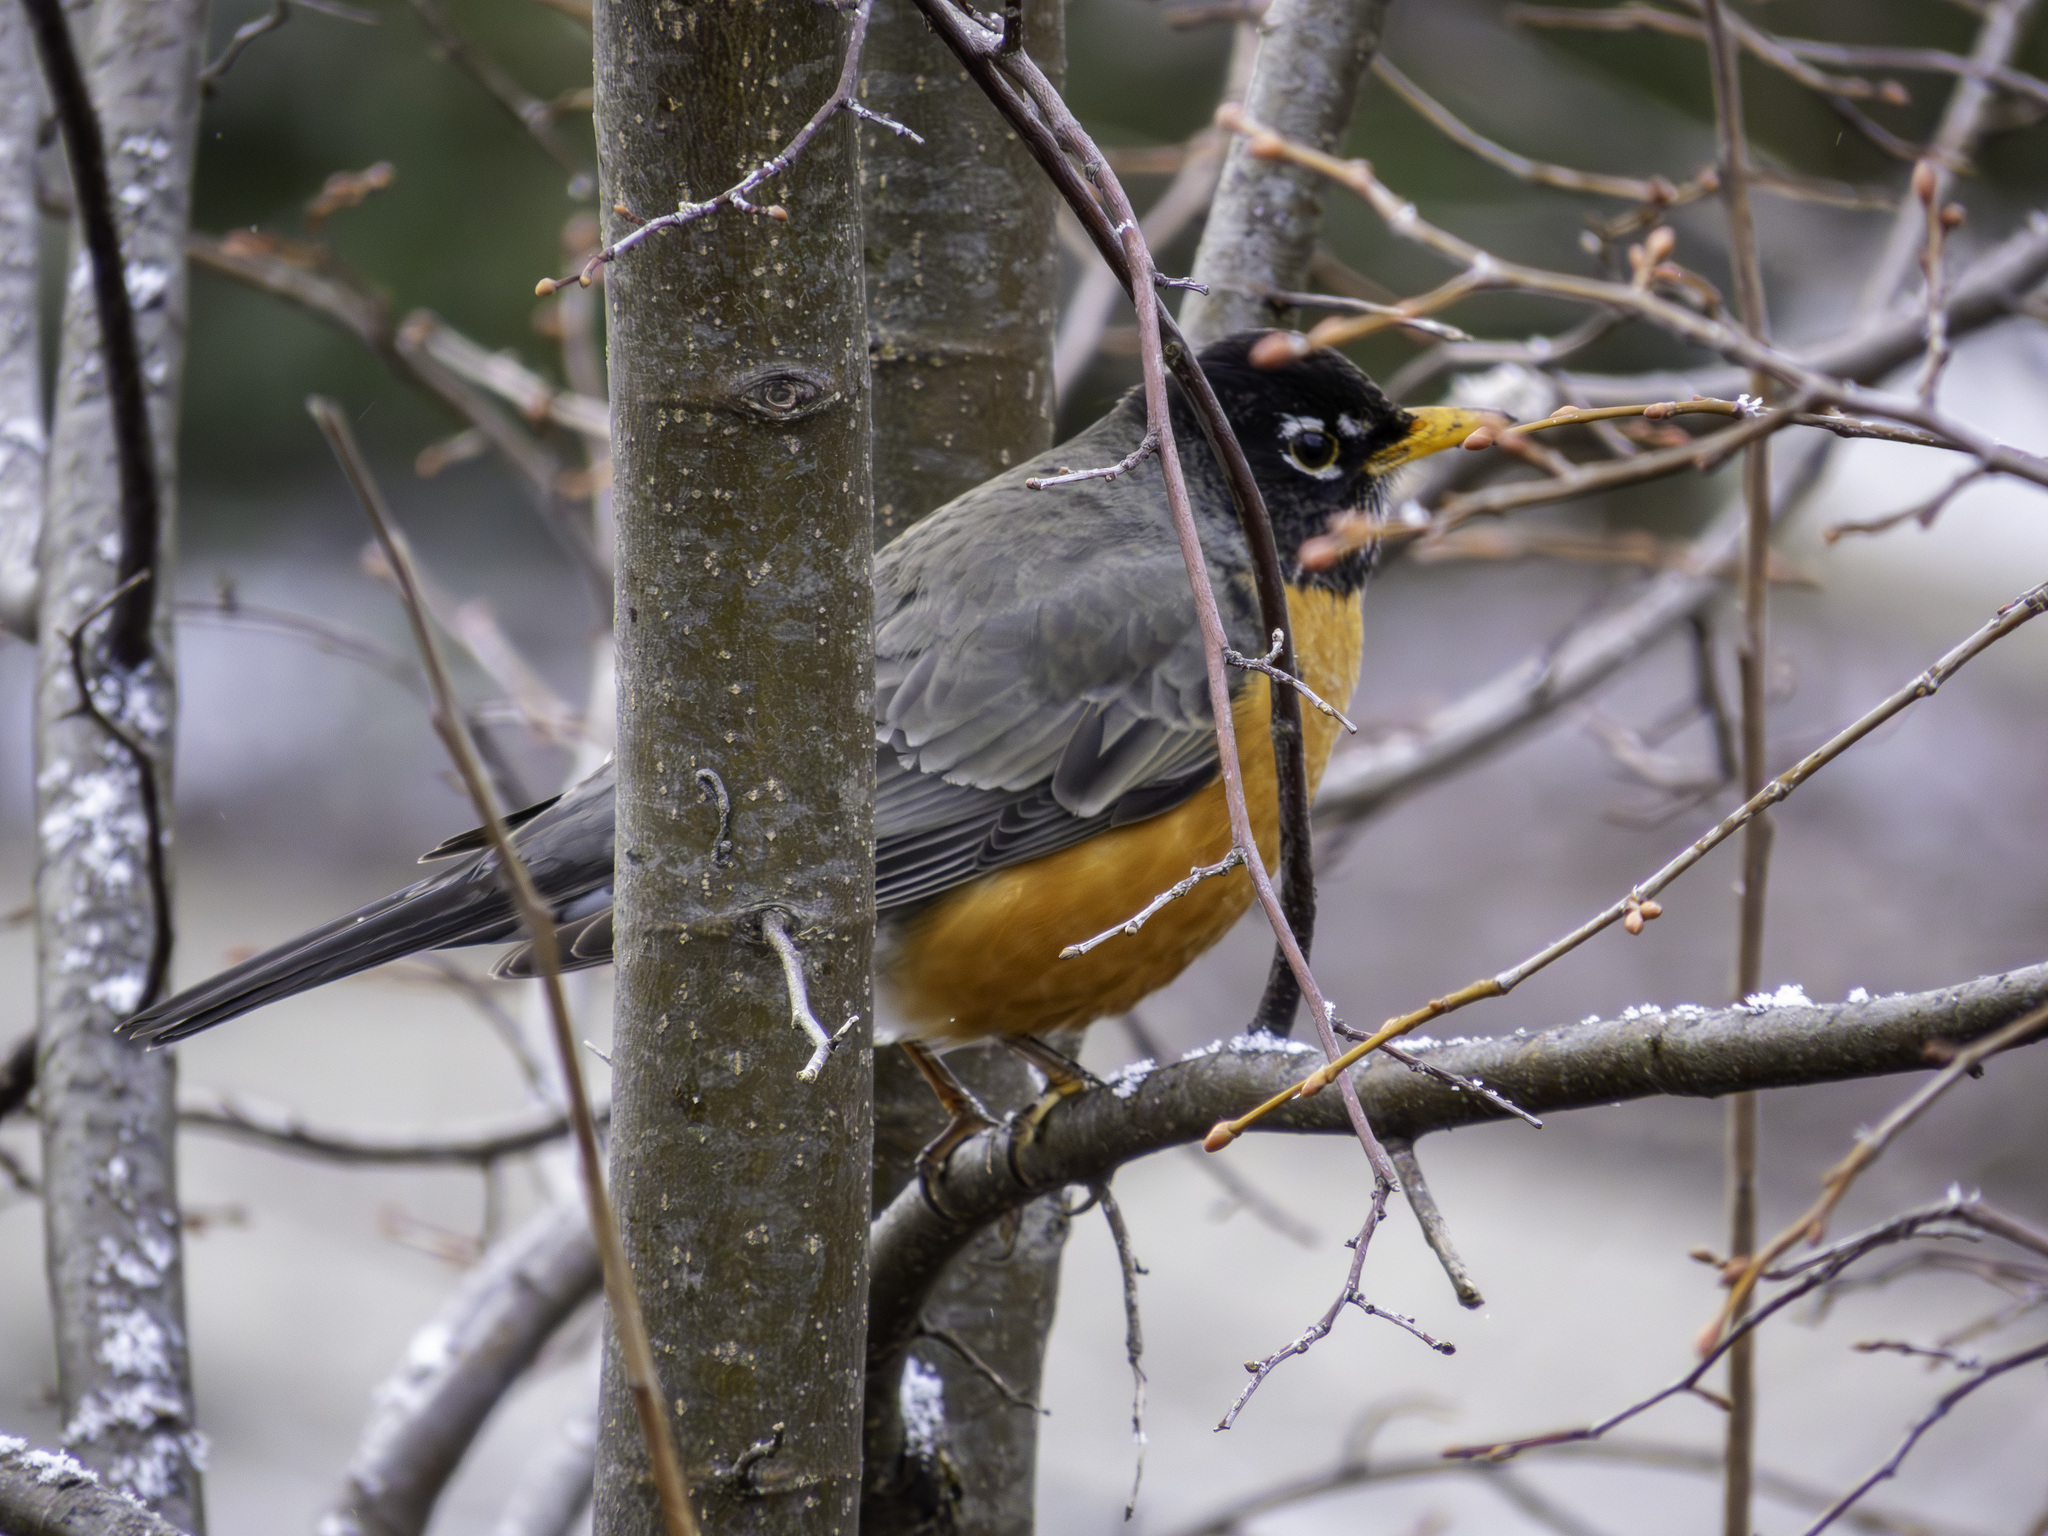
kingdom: Animalia
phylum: Chordata
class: Aves
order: Passeriformes
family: Turdidae
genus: Turdus
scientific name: Turdus migratorius
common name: American robin
